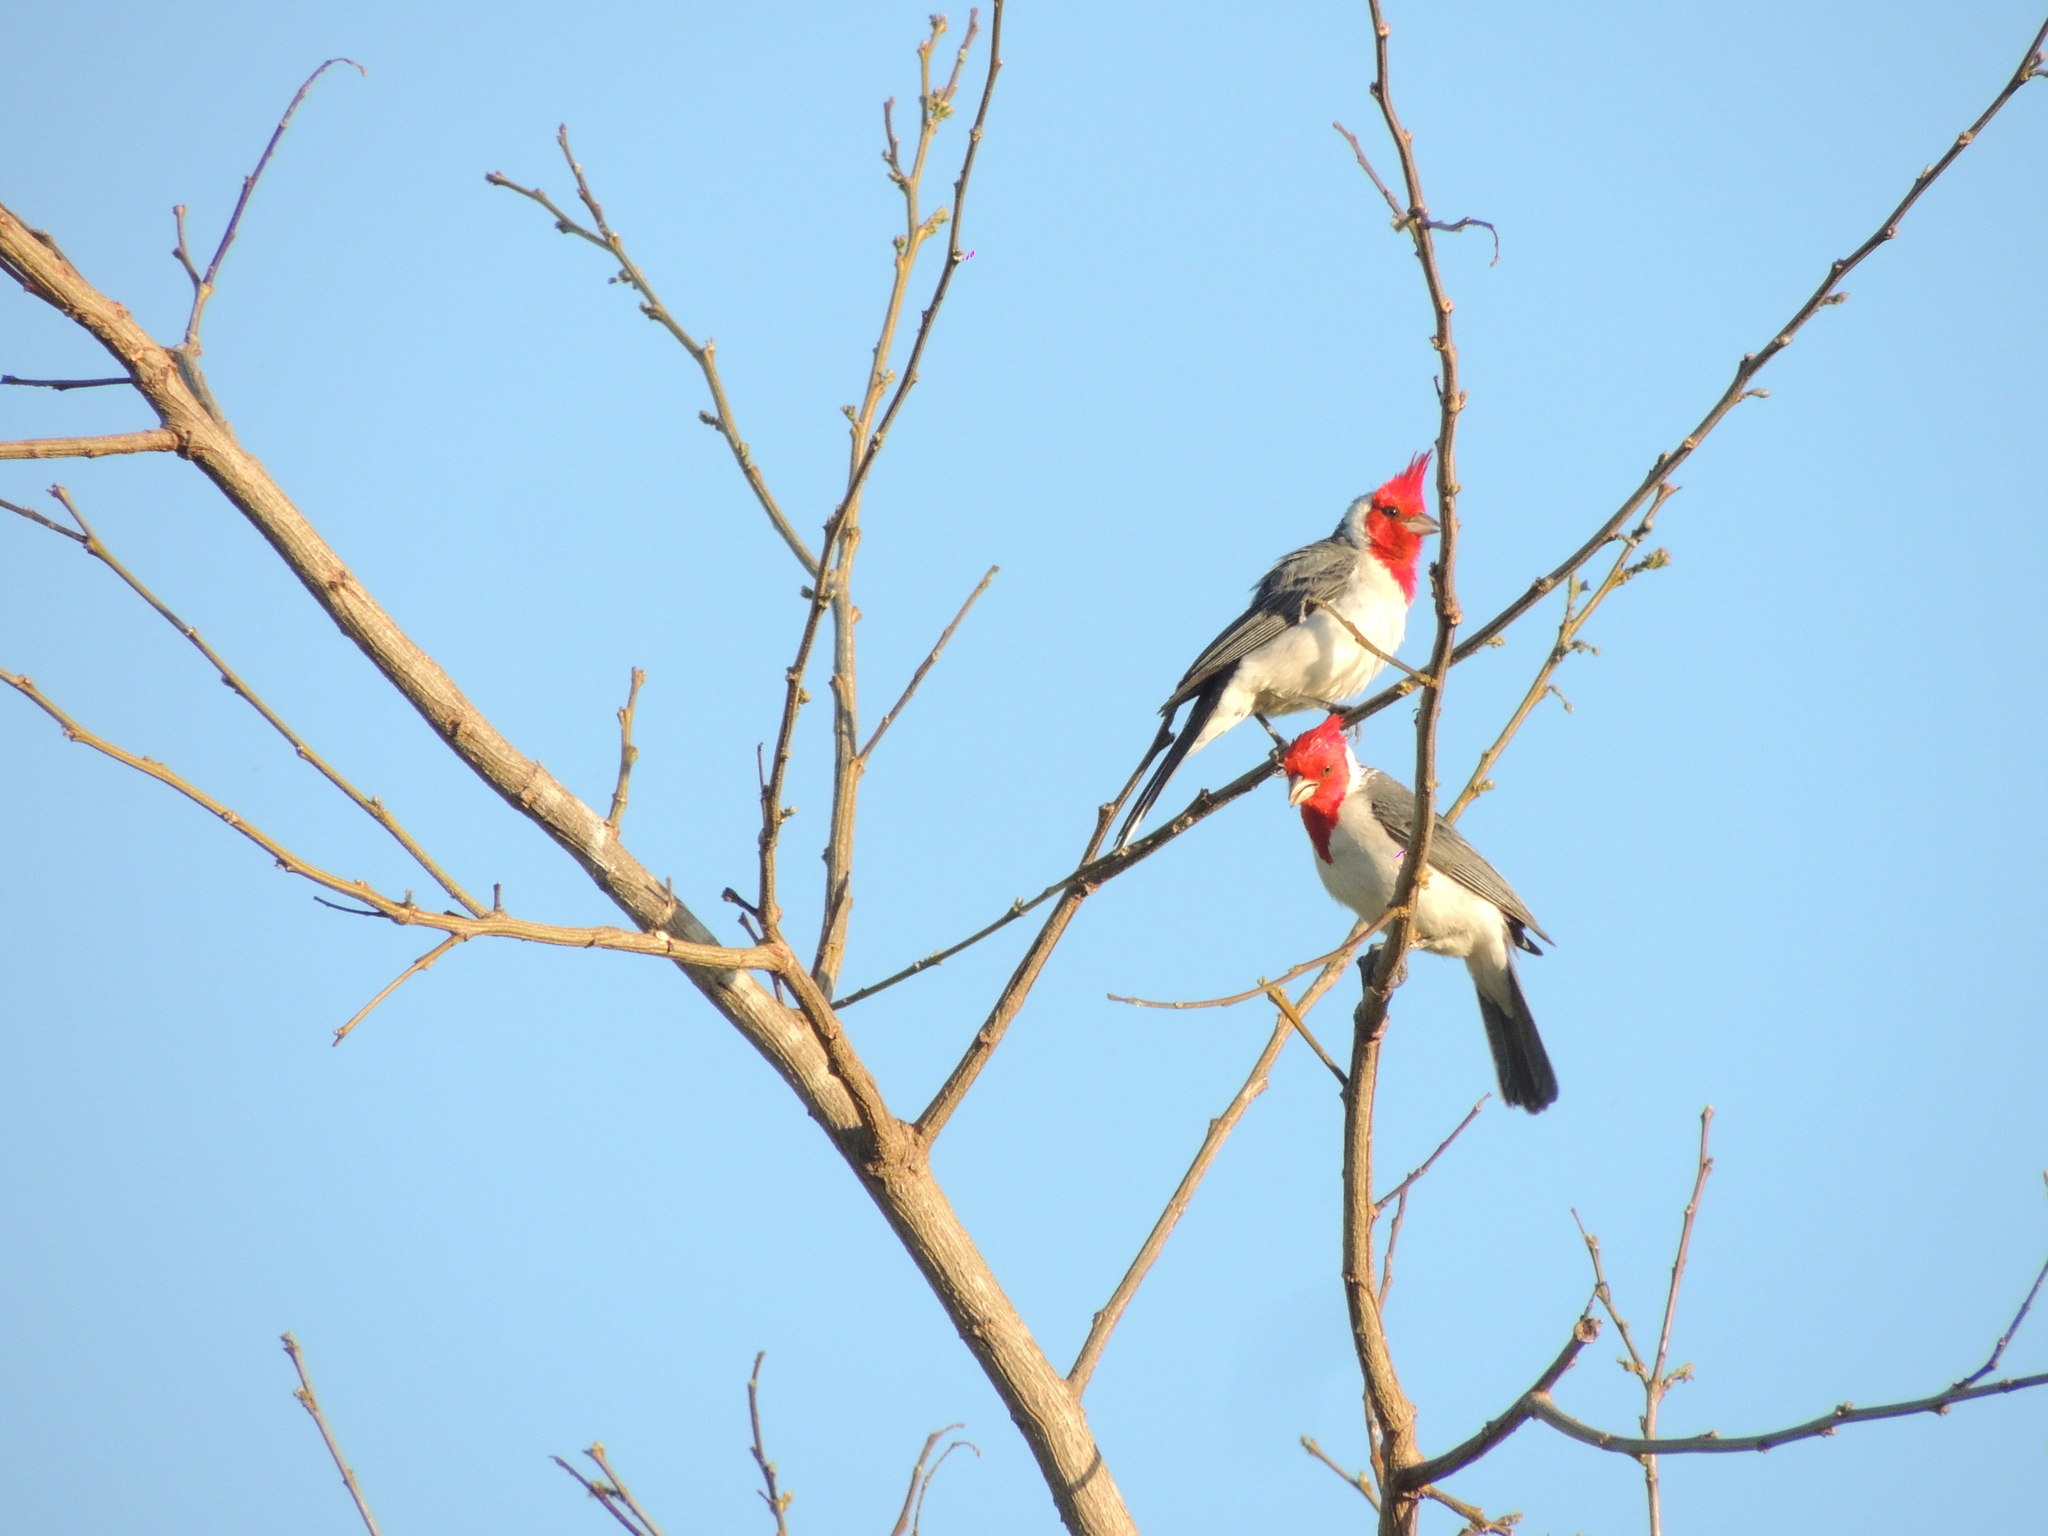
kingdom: Animalia
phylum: Chordata
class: Aves
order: Passeriformes
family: Thraupidae
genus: Paroaria
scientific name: Paroaria coronata
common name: Red-crested cardinal
